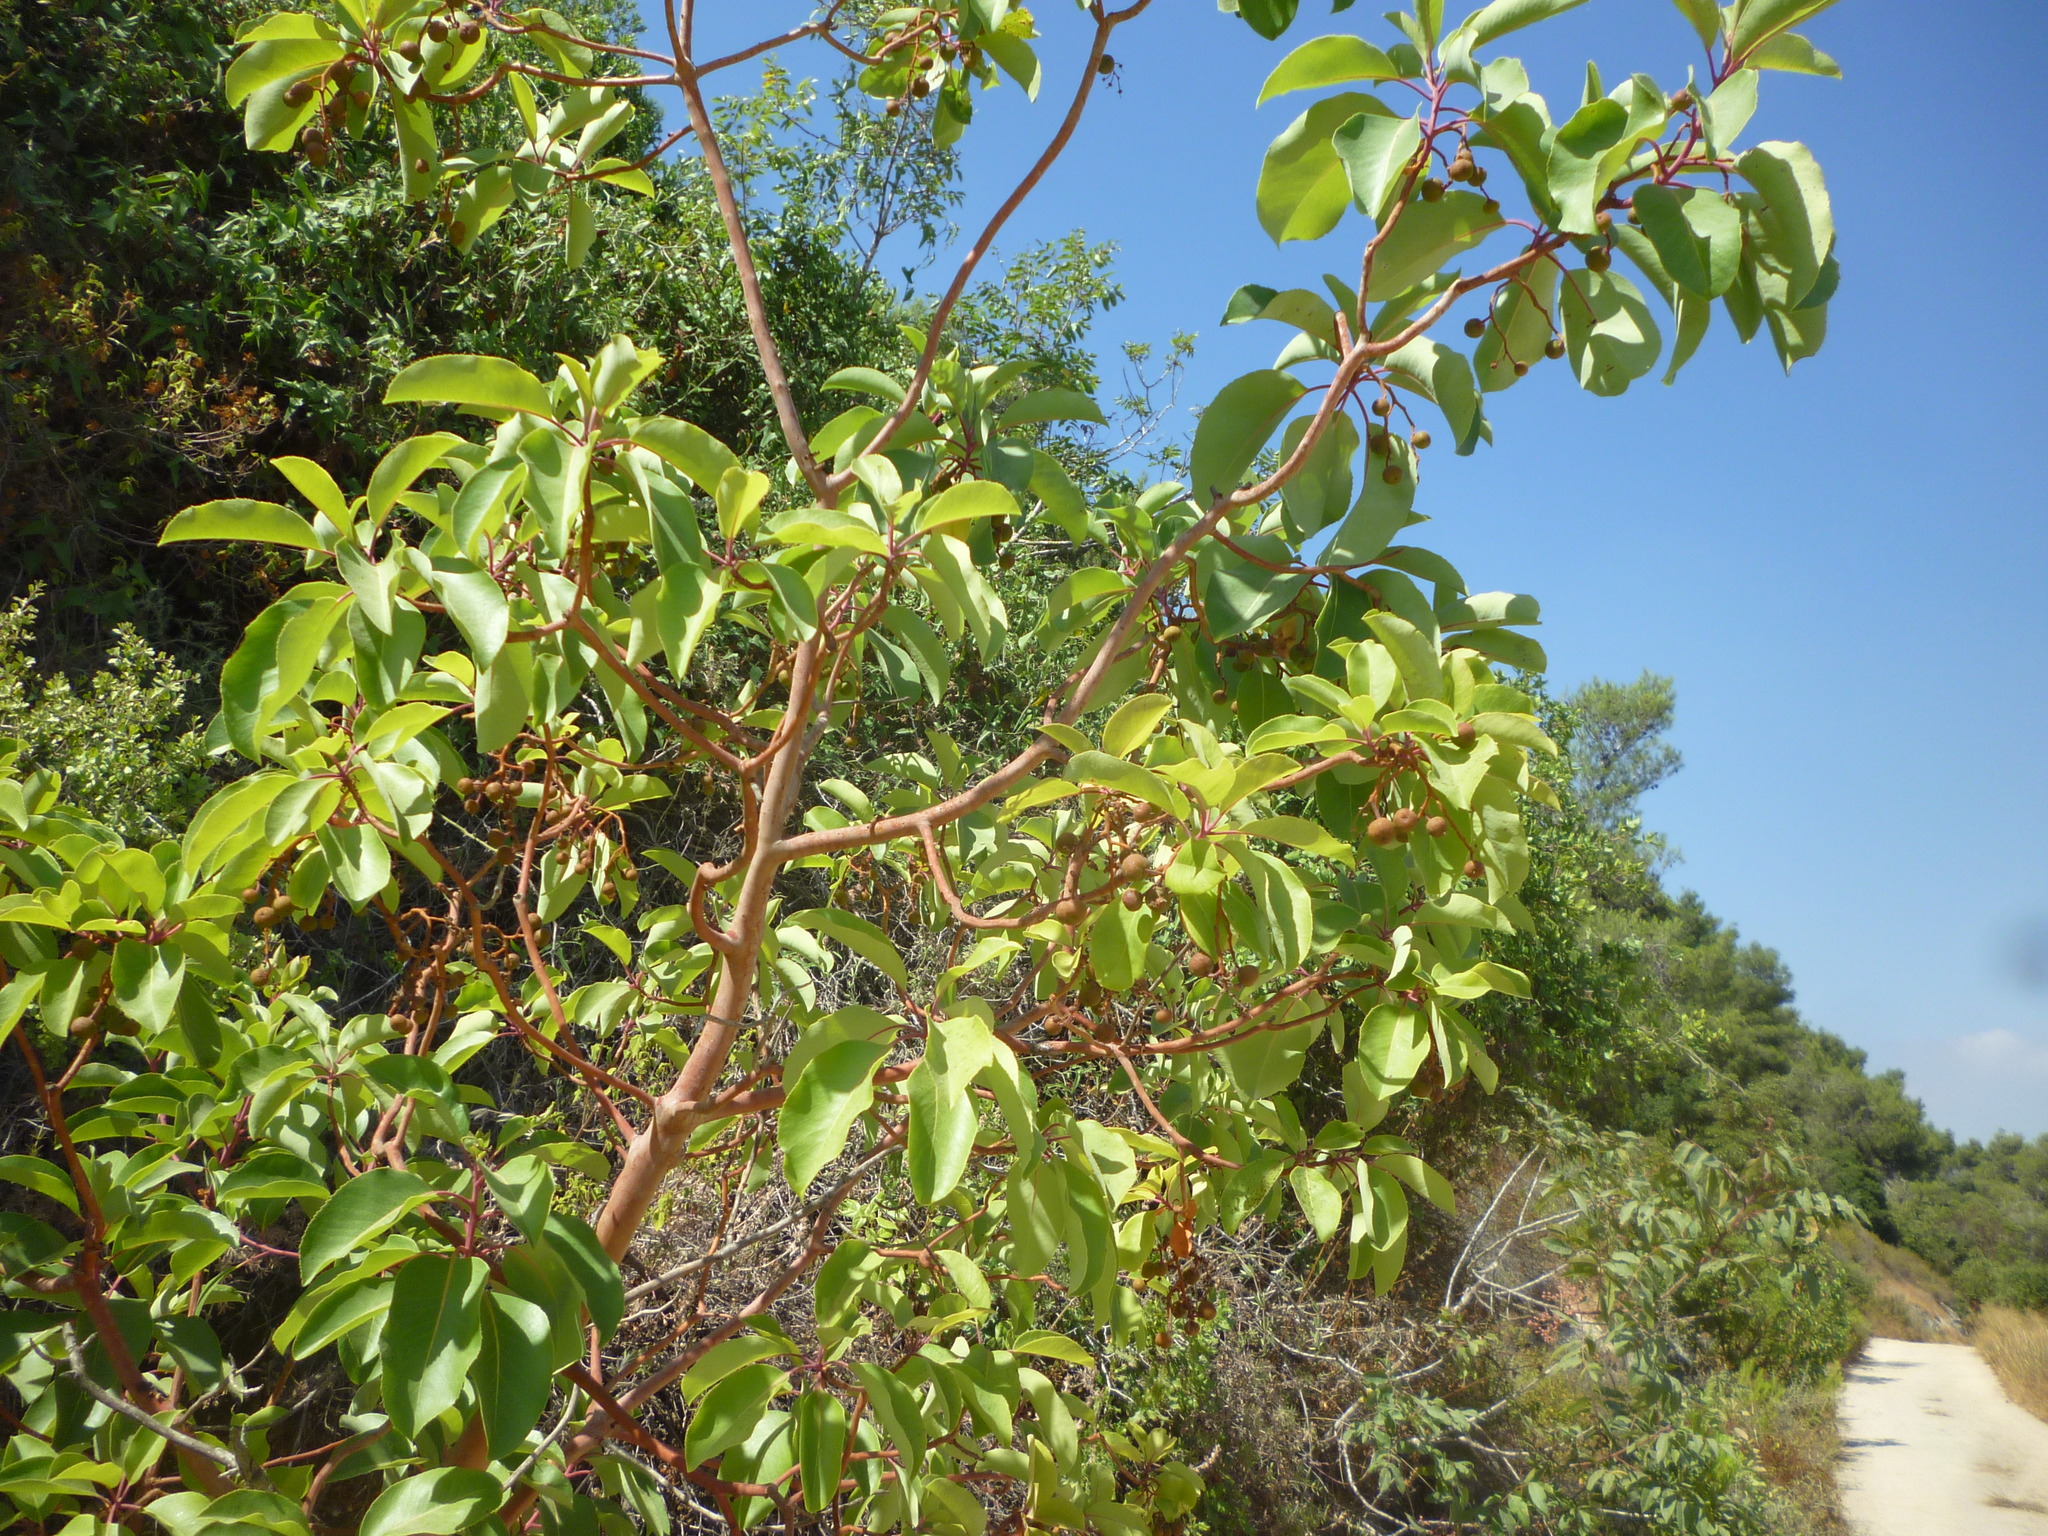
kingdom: Plantae
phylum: Tracheophyta
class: Magnoliopsida
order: Ericales
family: Ericaceae
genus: Arbutus
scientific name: Arbutus andrachne
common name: Greek strawberry tree
